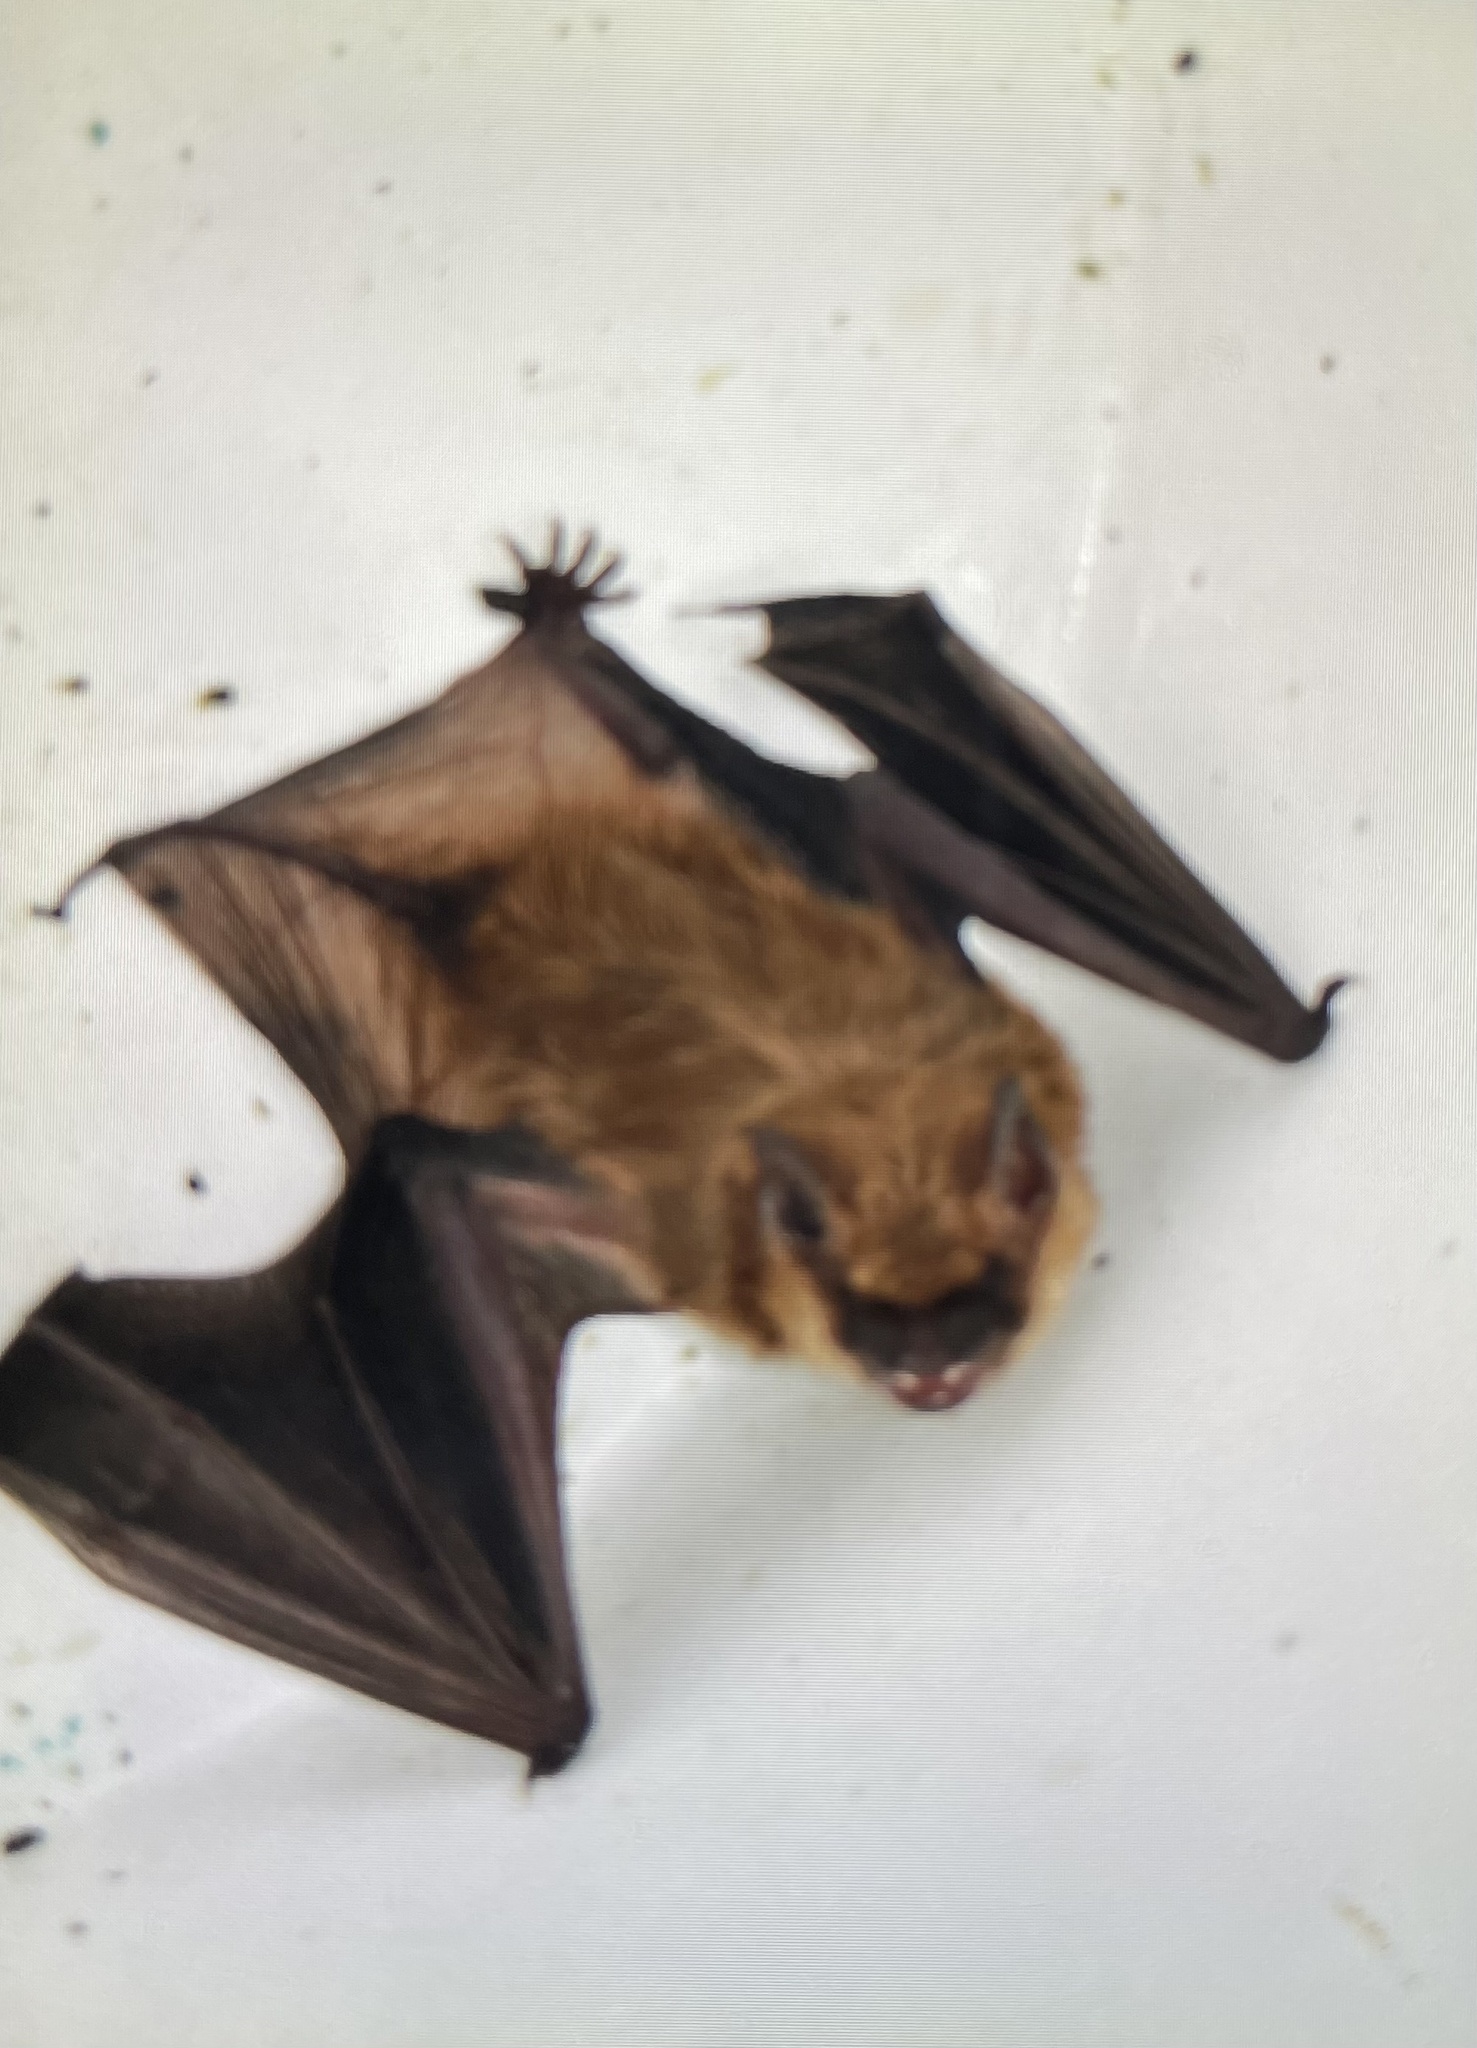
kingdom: Animalia
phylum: Chordata
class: Mammalia
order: Chiroptera
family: Vespertilionidae
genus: Eptesicus
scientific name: Eptesicus fuscus
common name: Big brown bat
